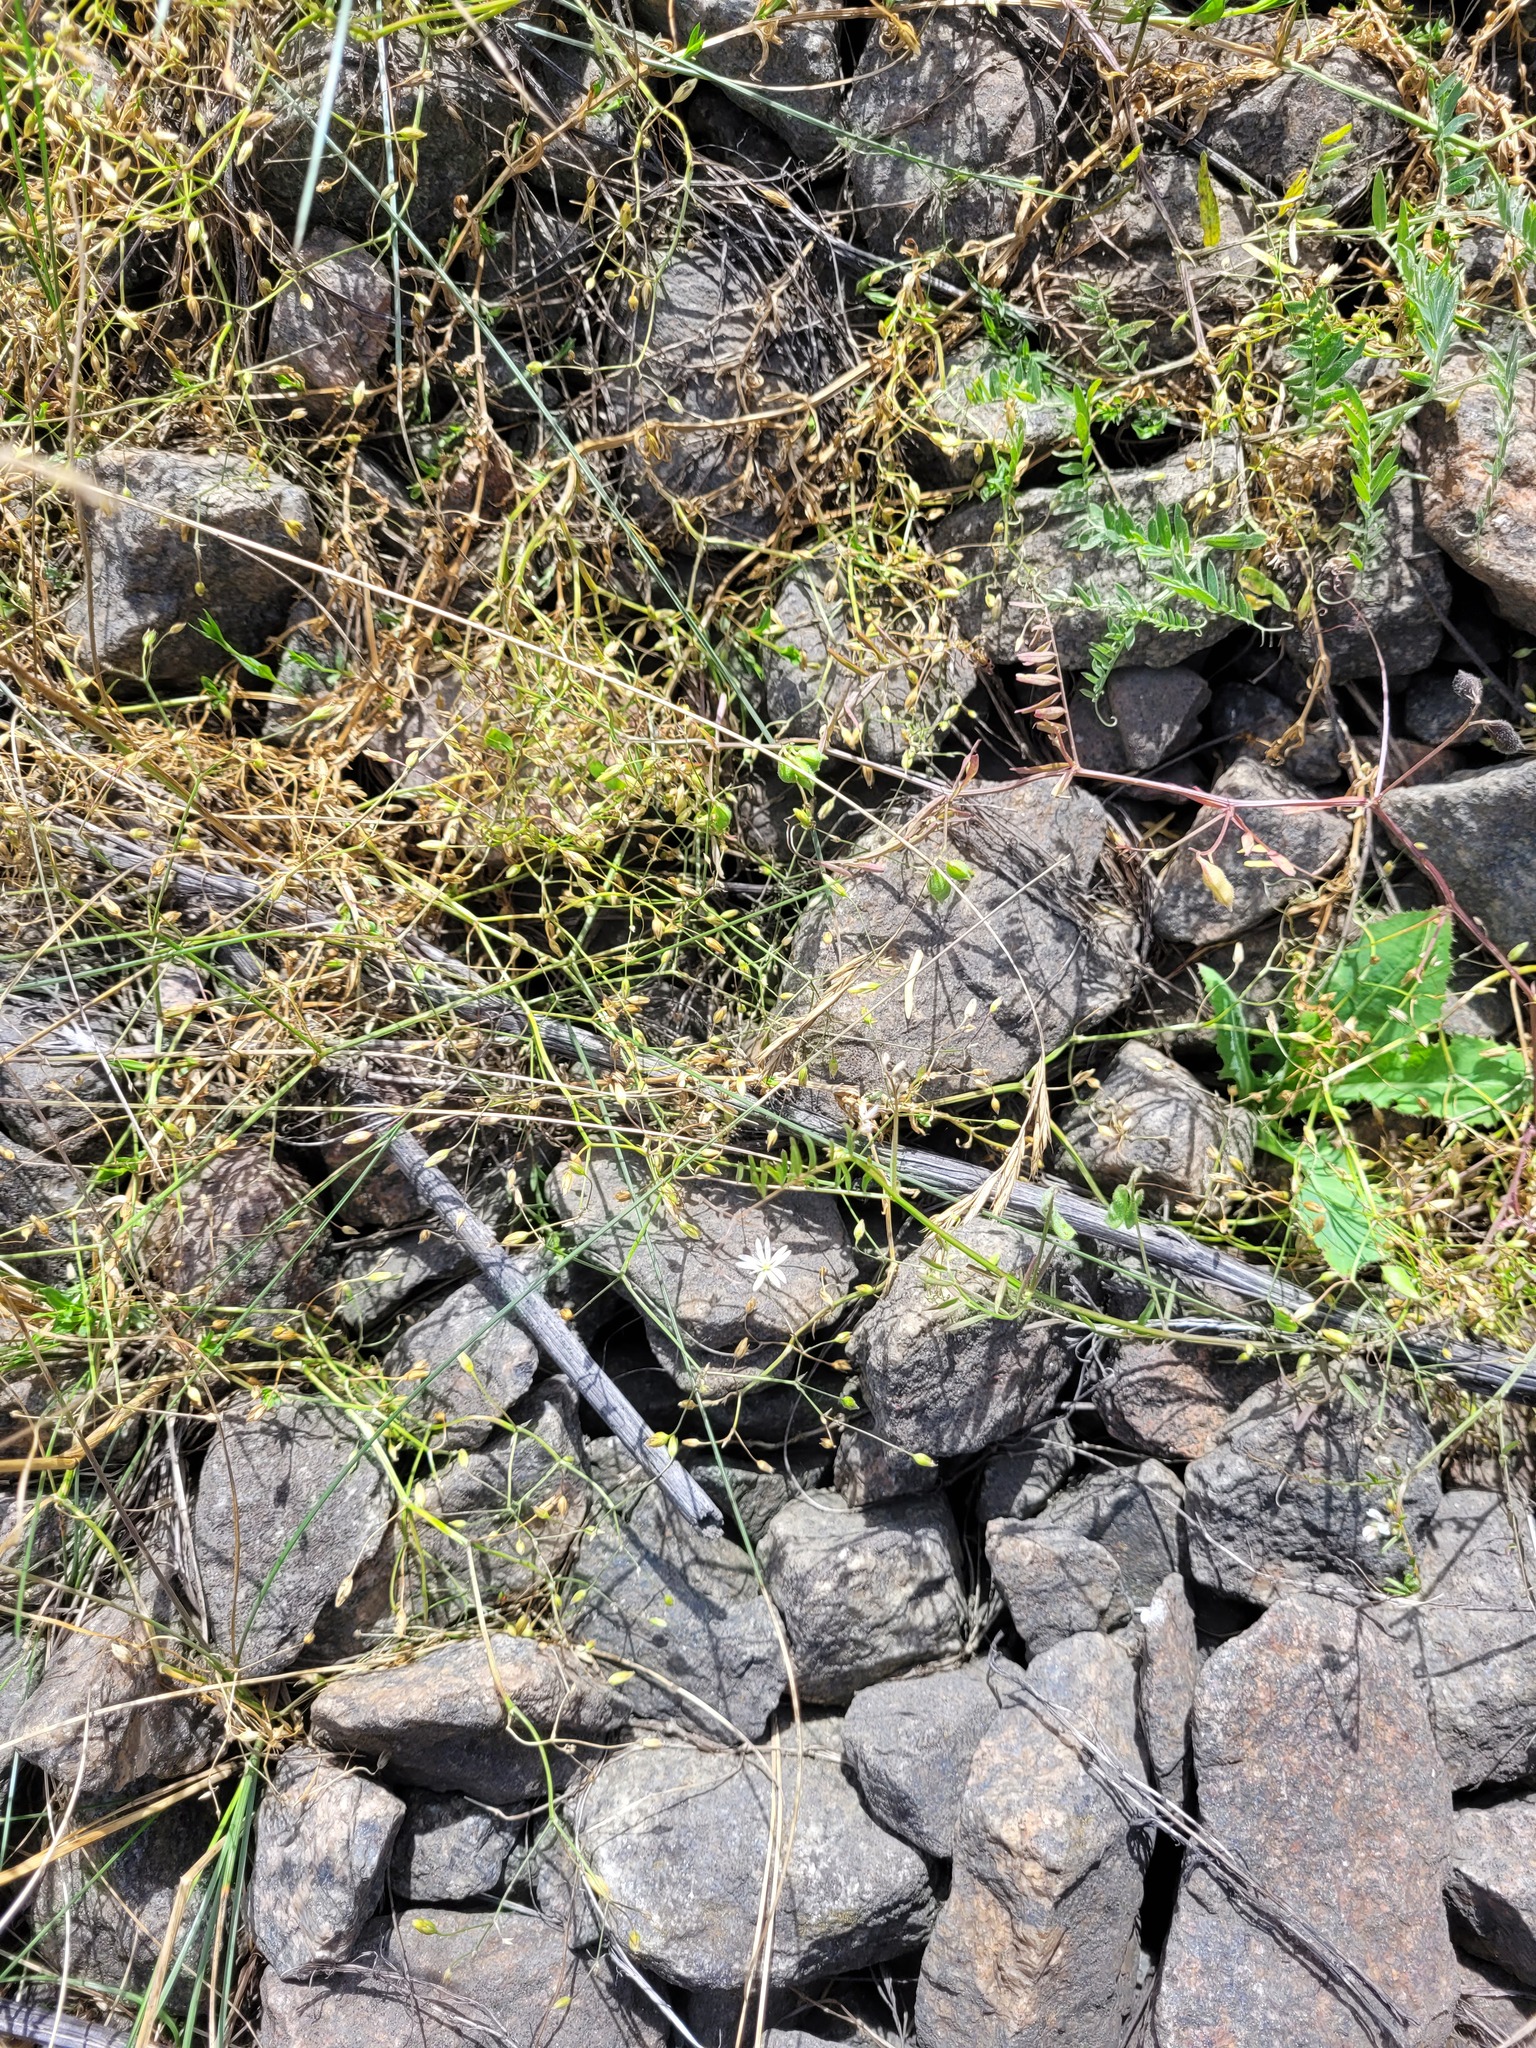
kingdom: Plantae
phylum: Tracheophyta
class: Magnoliopsida
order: Caryophyllales
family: Caryophyllaceae
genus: Stellaria
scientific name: Stellaria graminea
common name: Grass-like starwort
